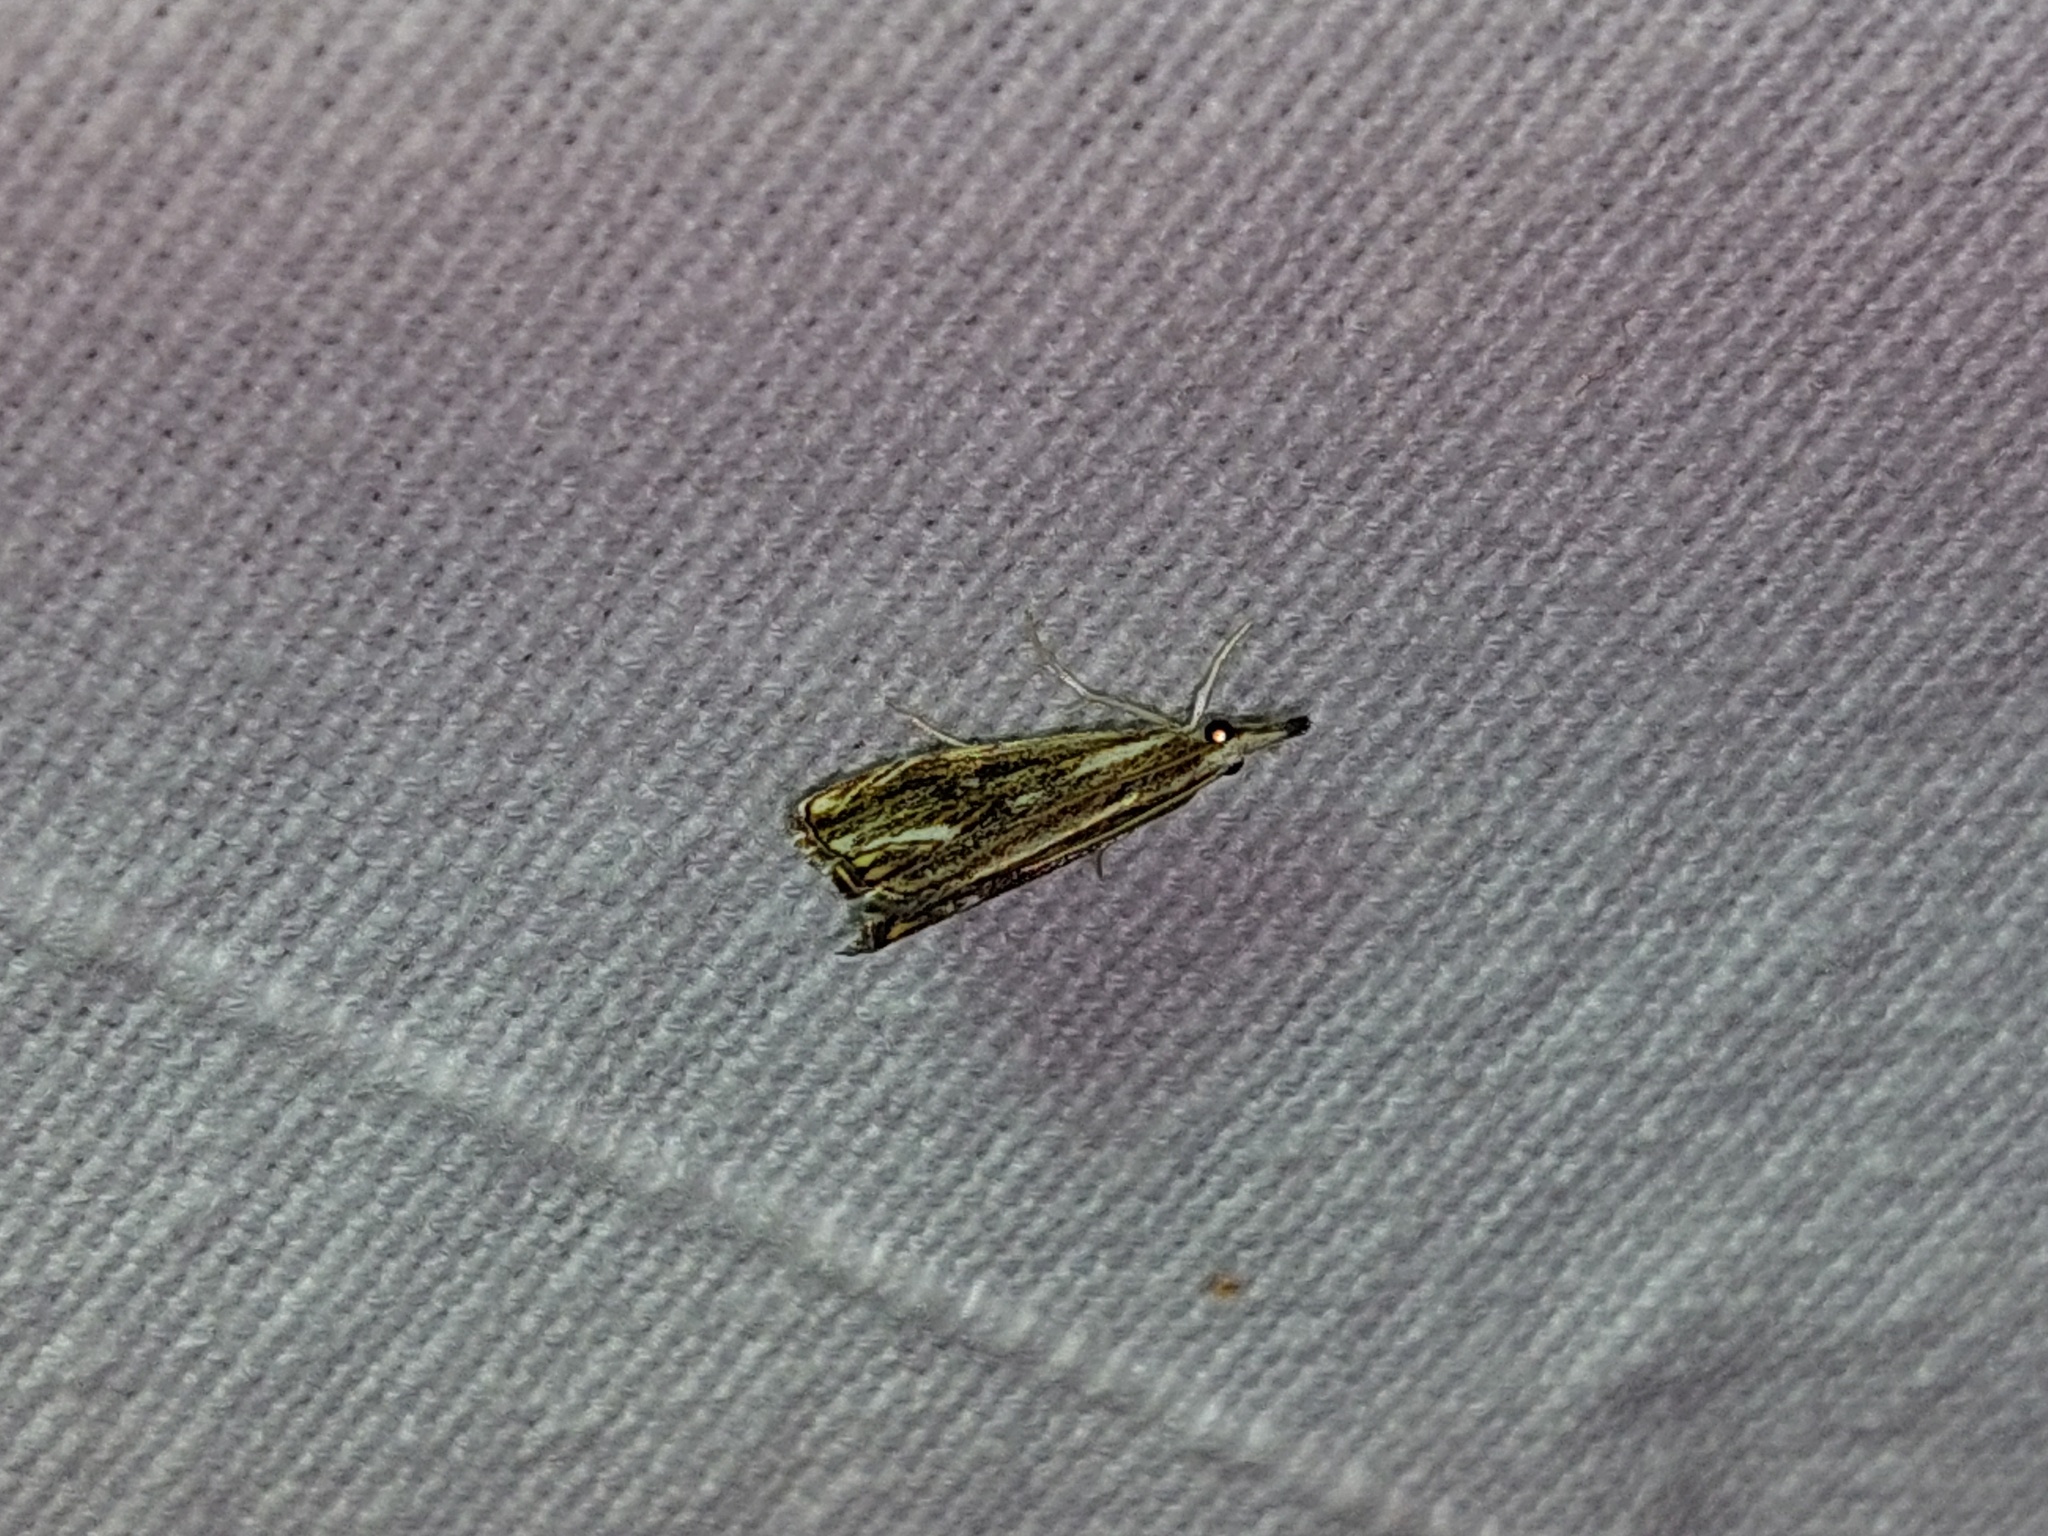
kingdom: Animalia
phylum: Arthropoda
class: Insecta
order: Lepidoptera
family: Crambidae
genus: Catoptria
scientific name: Catoptria verellus
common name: Marbled grass-veneer
